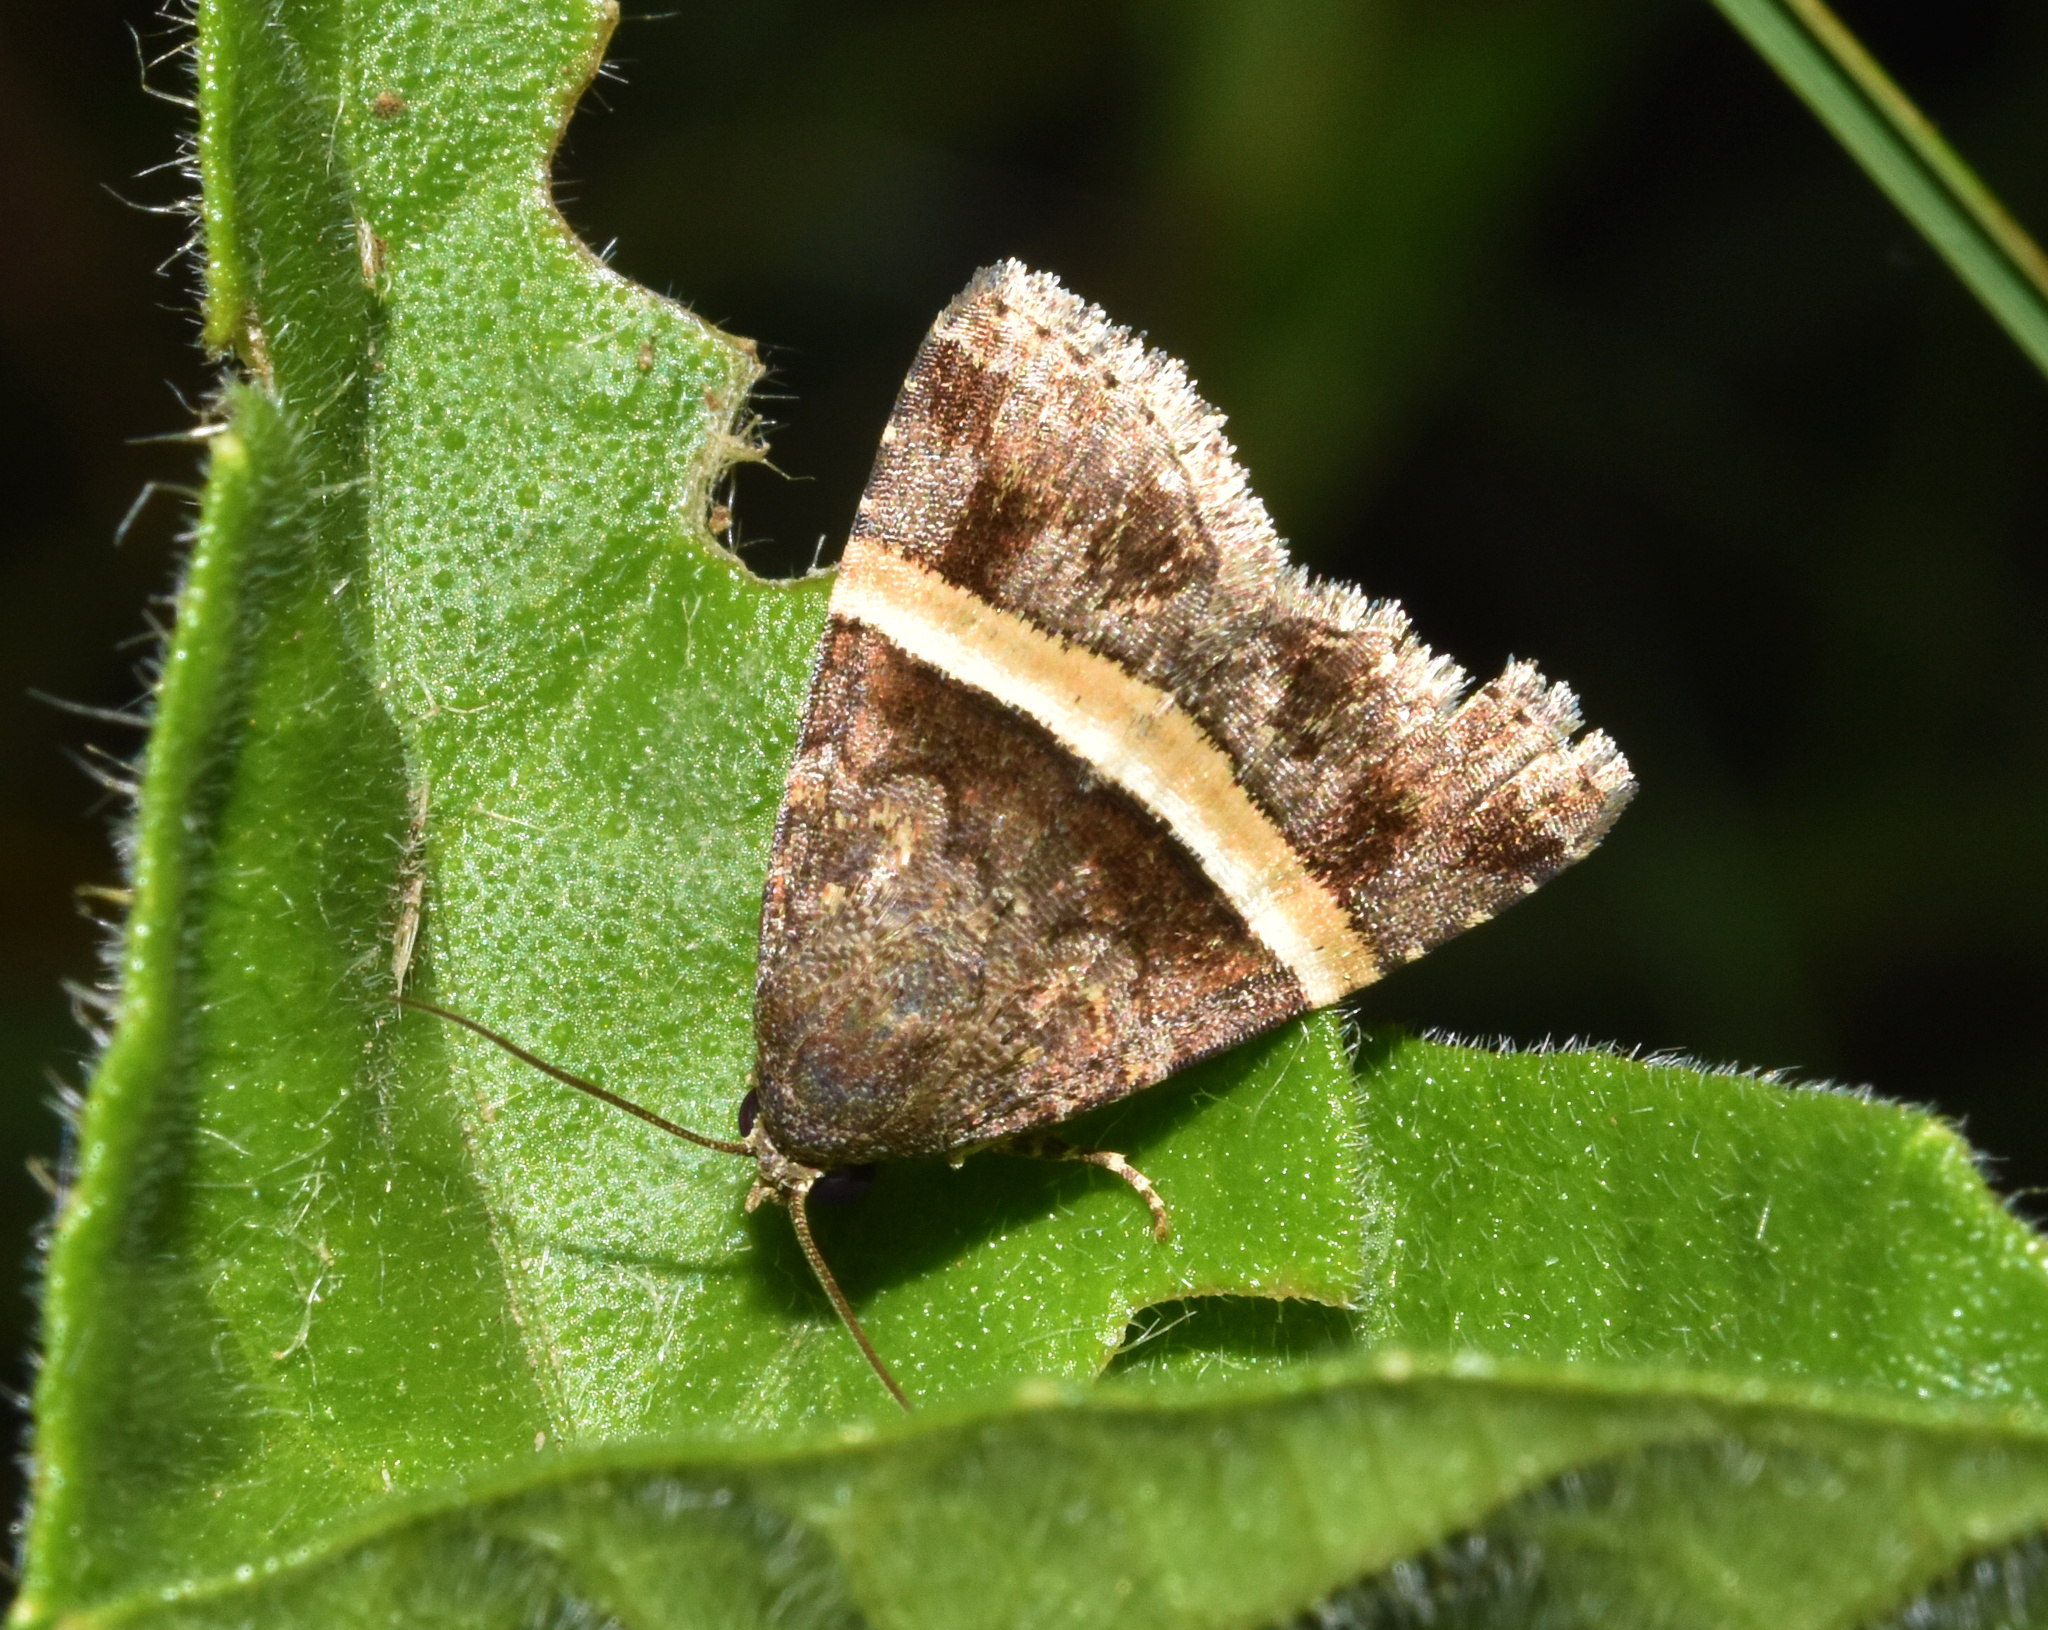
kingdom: Animalia
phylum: Arthropoda
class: Insecta
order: Lepidoptera
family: Noctuidae
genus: Ozarba
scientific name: Ozarba abscissa
